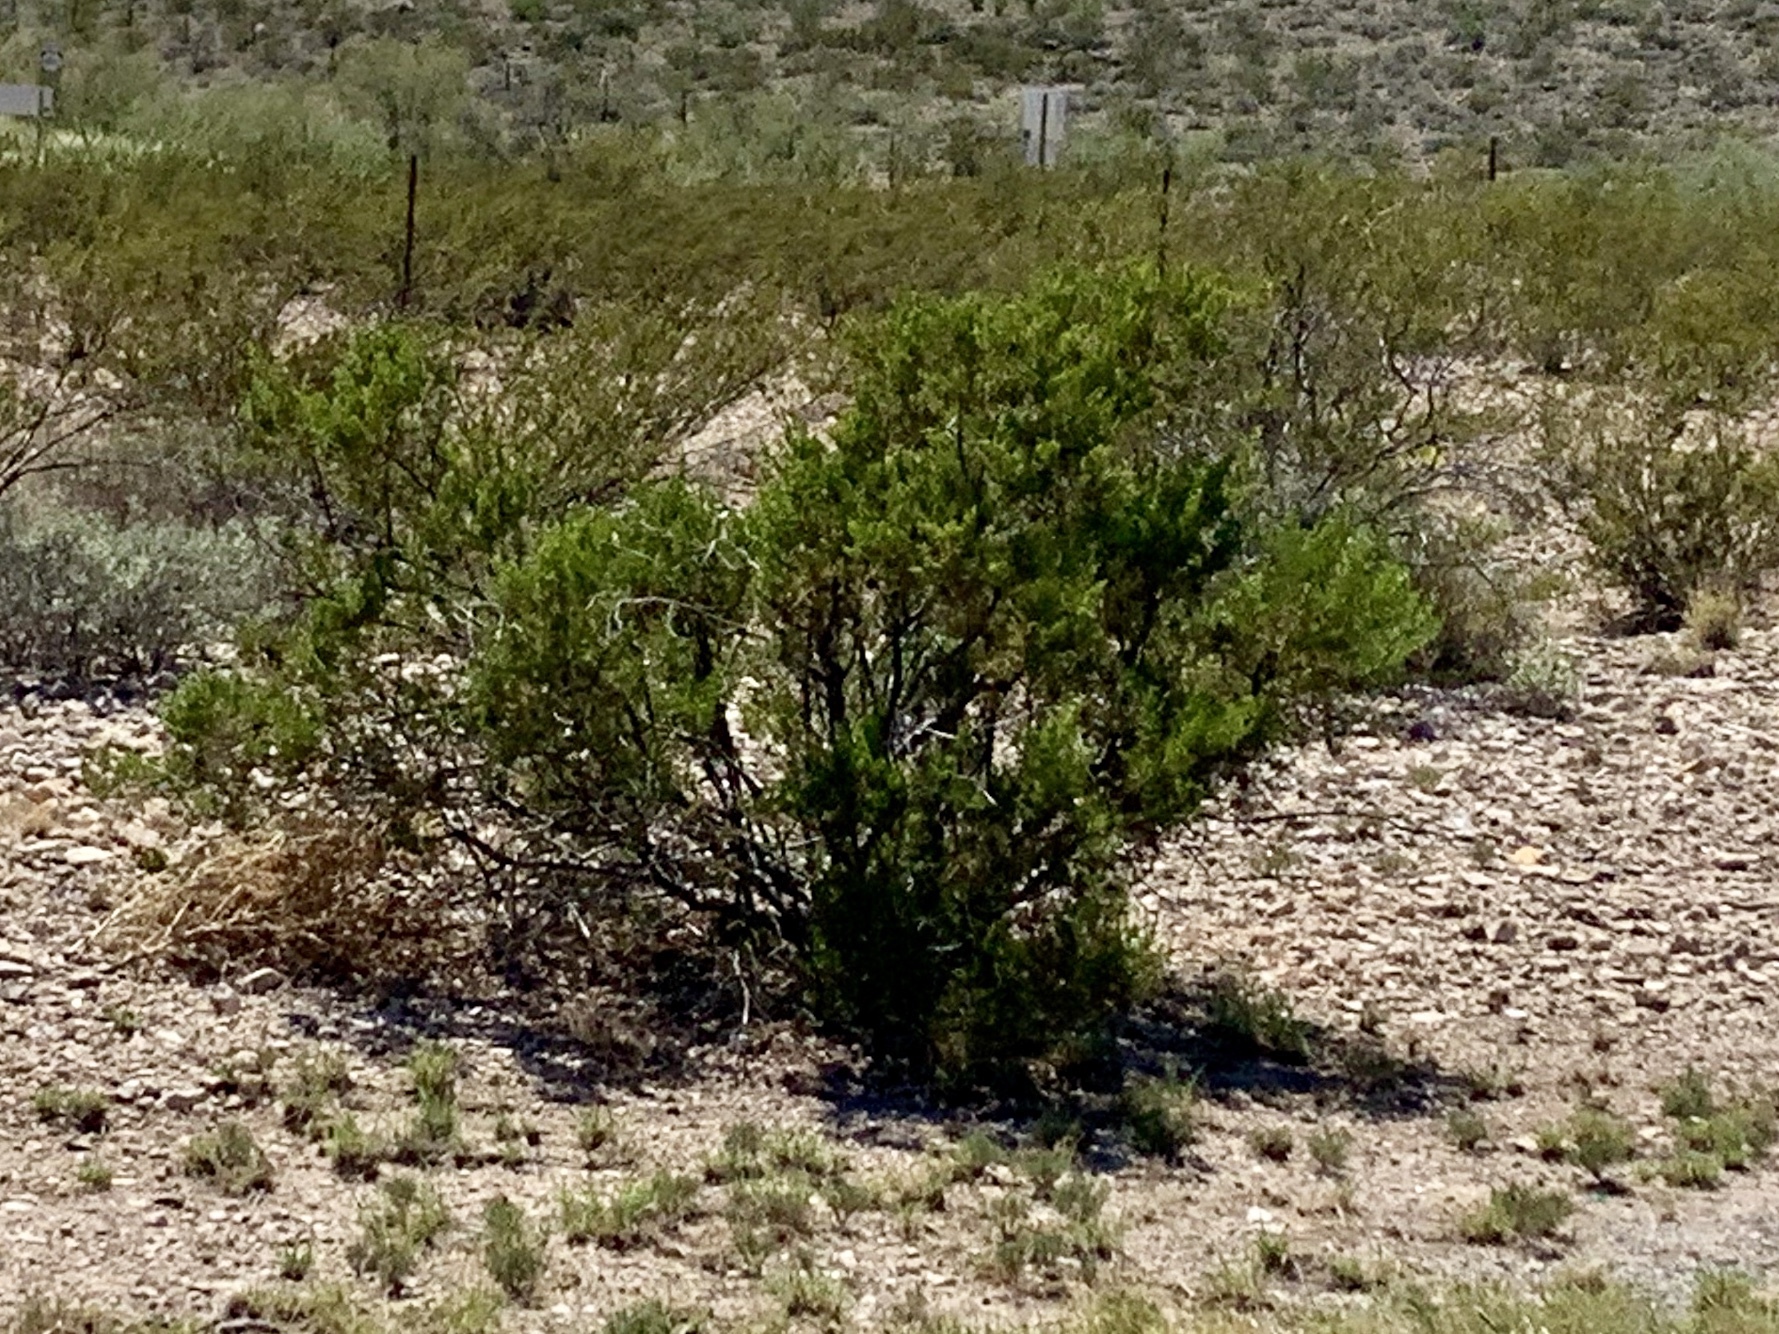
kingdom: Plantae
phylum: Tracheophyta
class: Magnoliopsida
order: Zygophyllales
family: Zygophyllaceae
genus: Larrea
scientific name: Larrea tridentata
